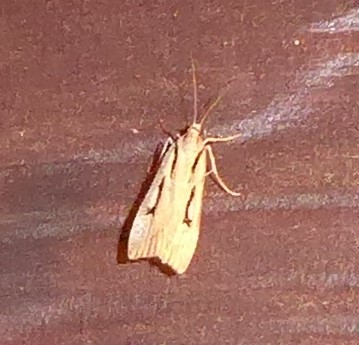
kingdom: Animalia
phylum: Arthropoda
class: Insecta
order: Lepidoptera
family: Crambidae
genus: Scoparia
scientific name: Scoparia rotuellus
